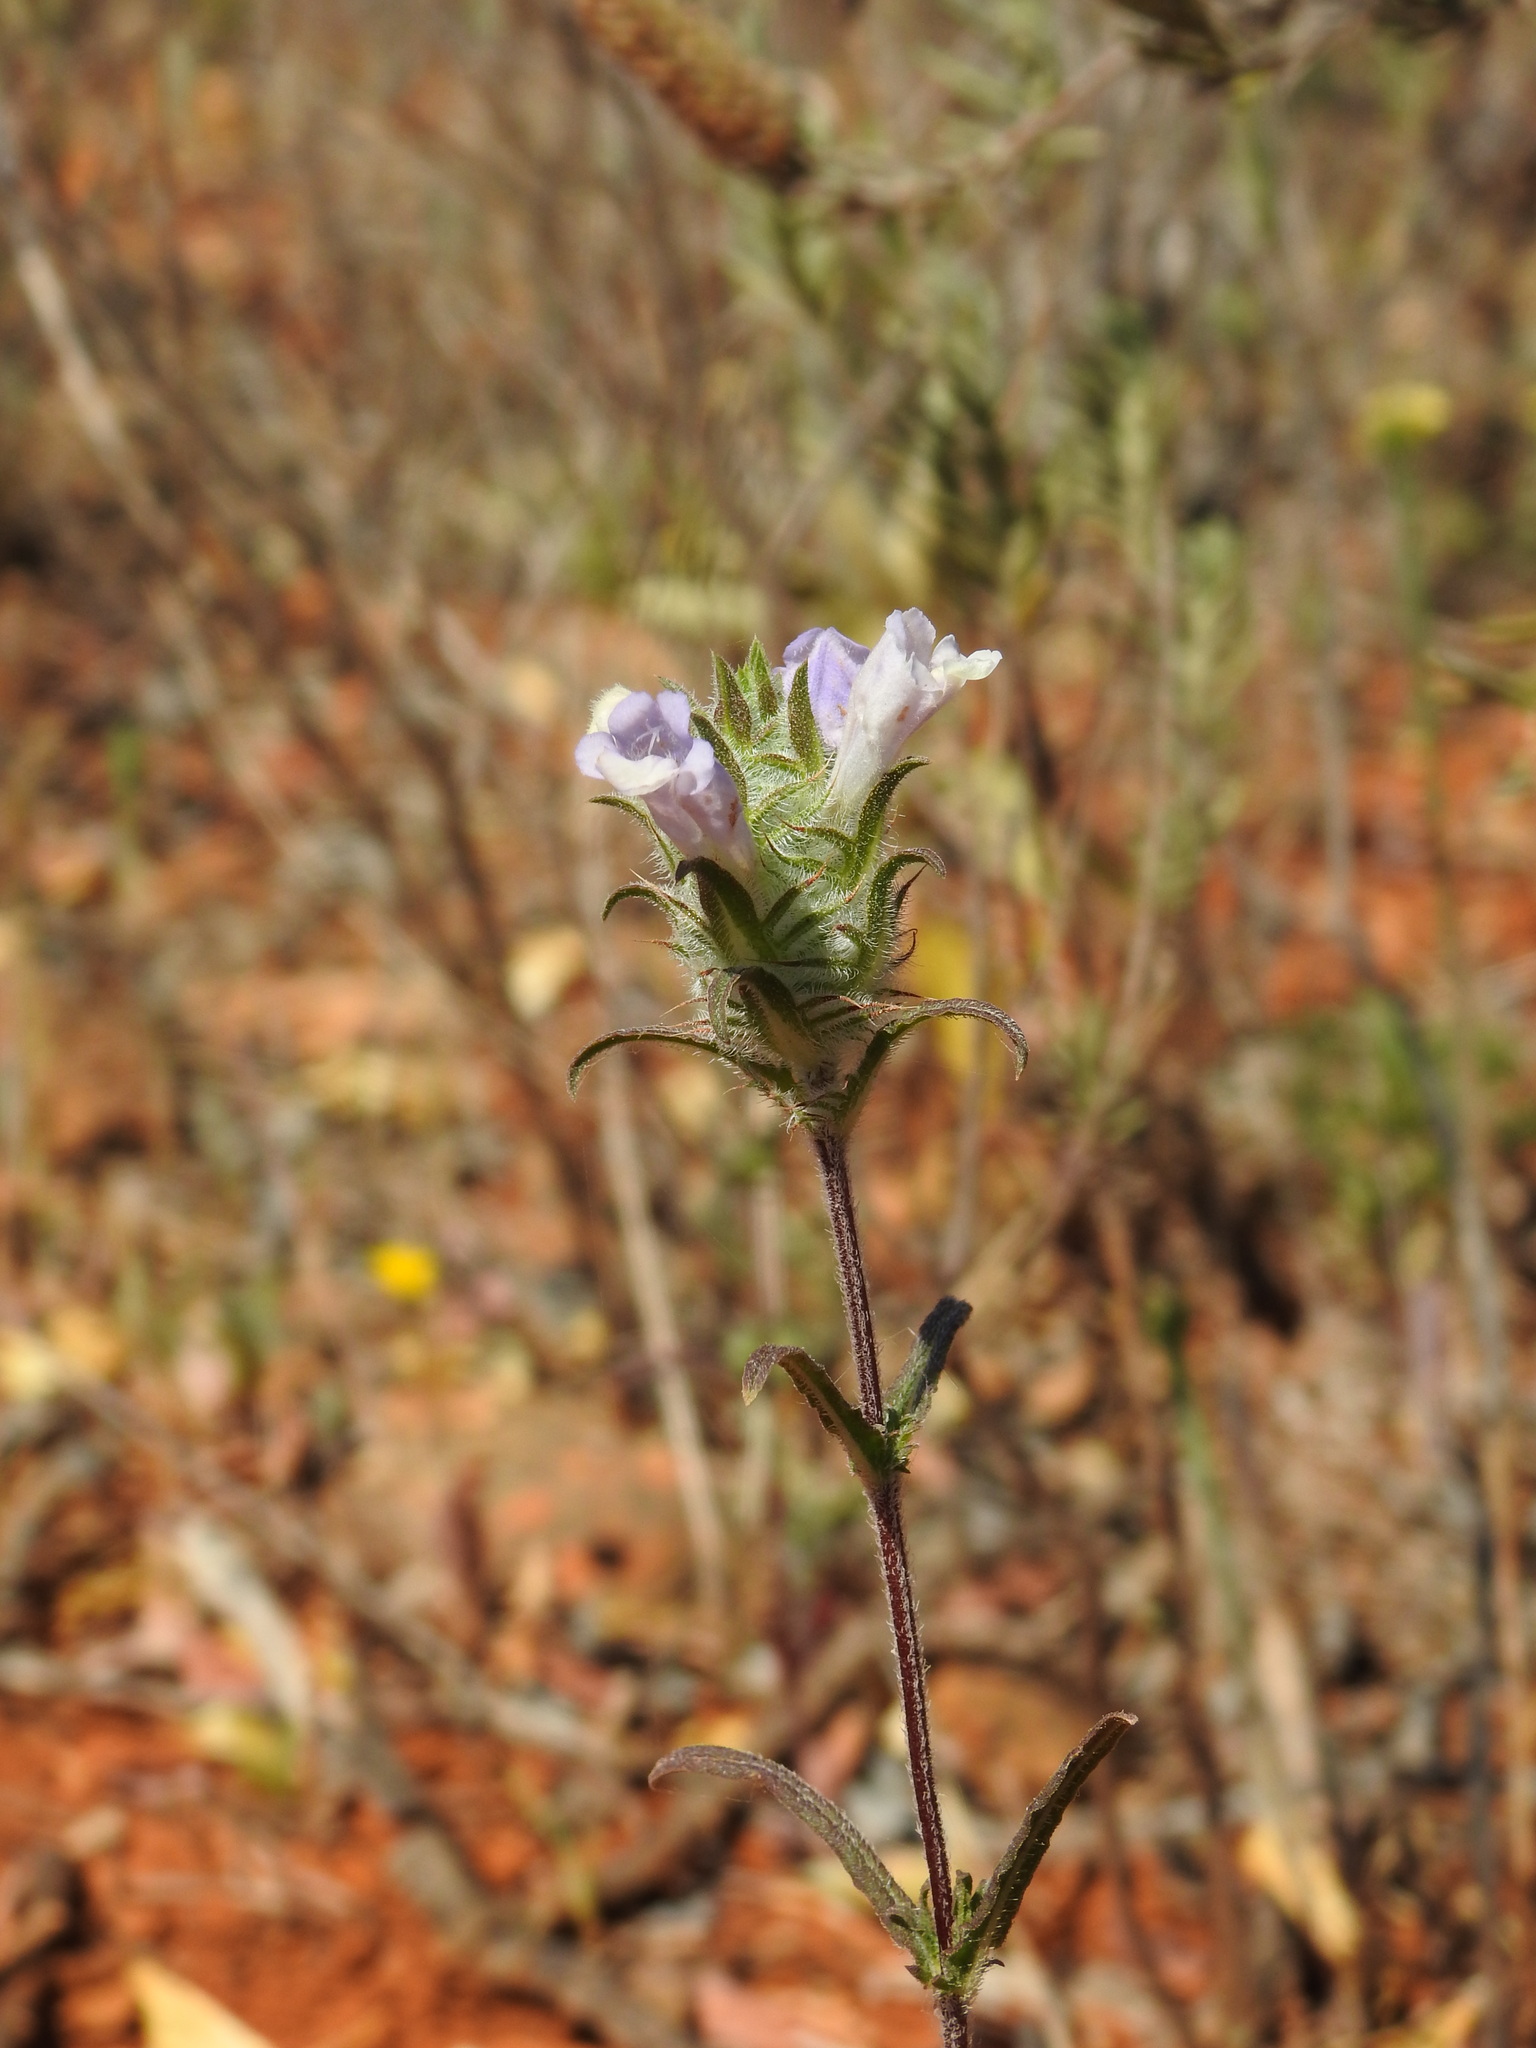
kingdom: Plantae
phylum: Tracheophyta
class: Magnoliopsida
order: Lamiales
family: Lamiaceae
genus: Cleonia
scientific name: Cleonia lusitanica
